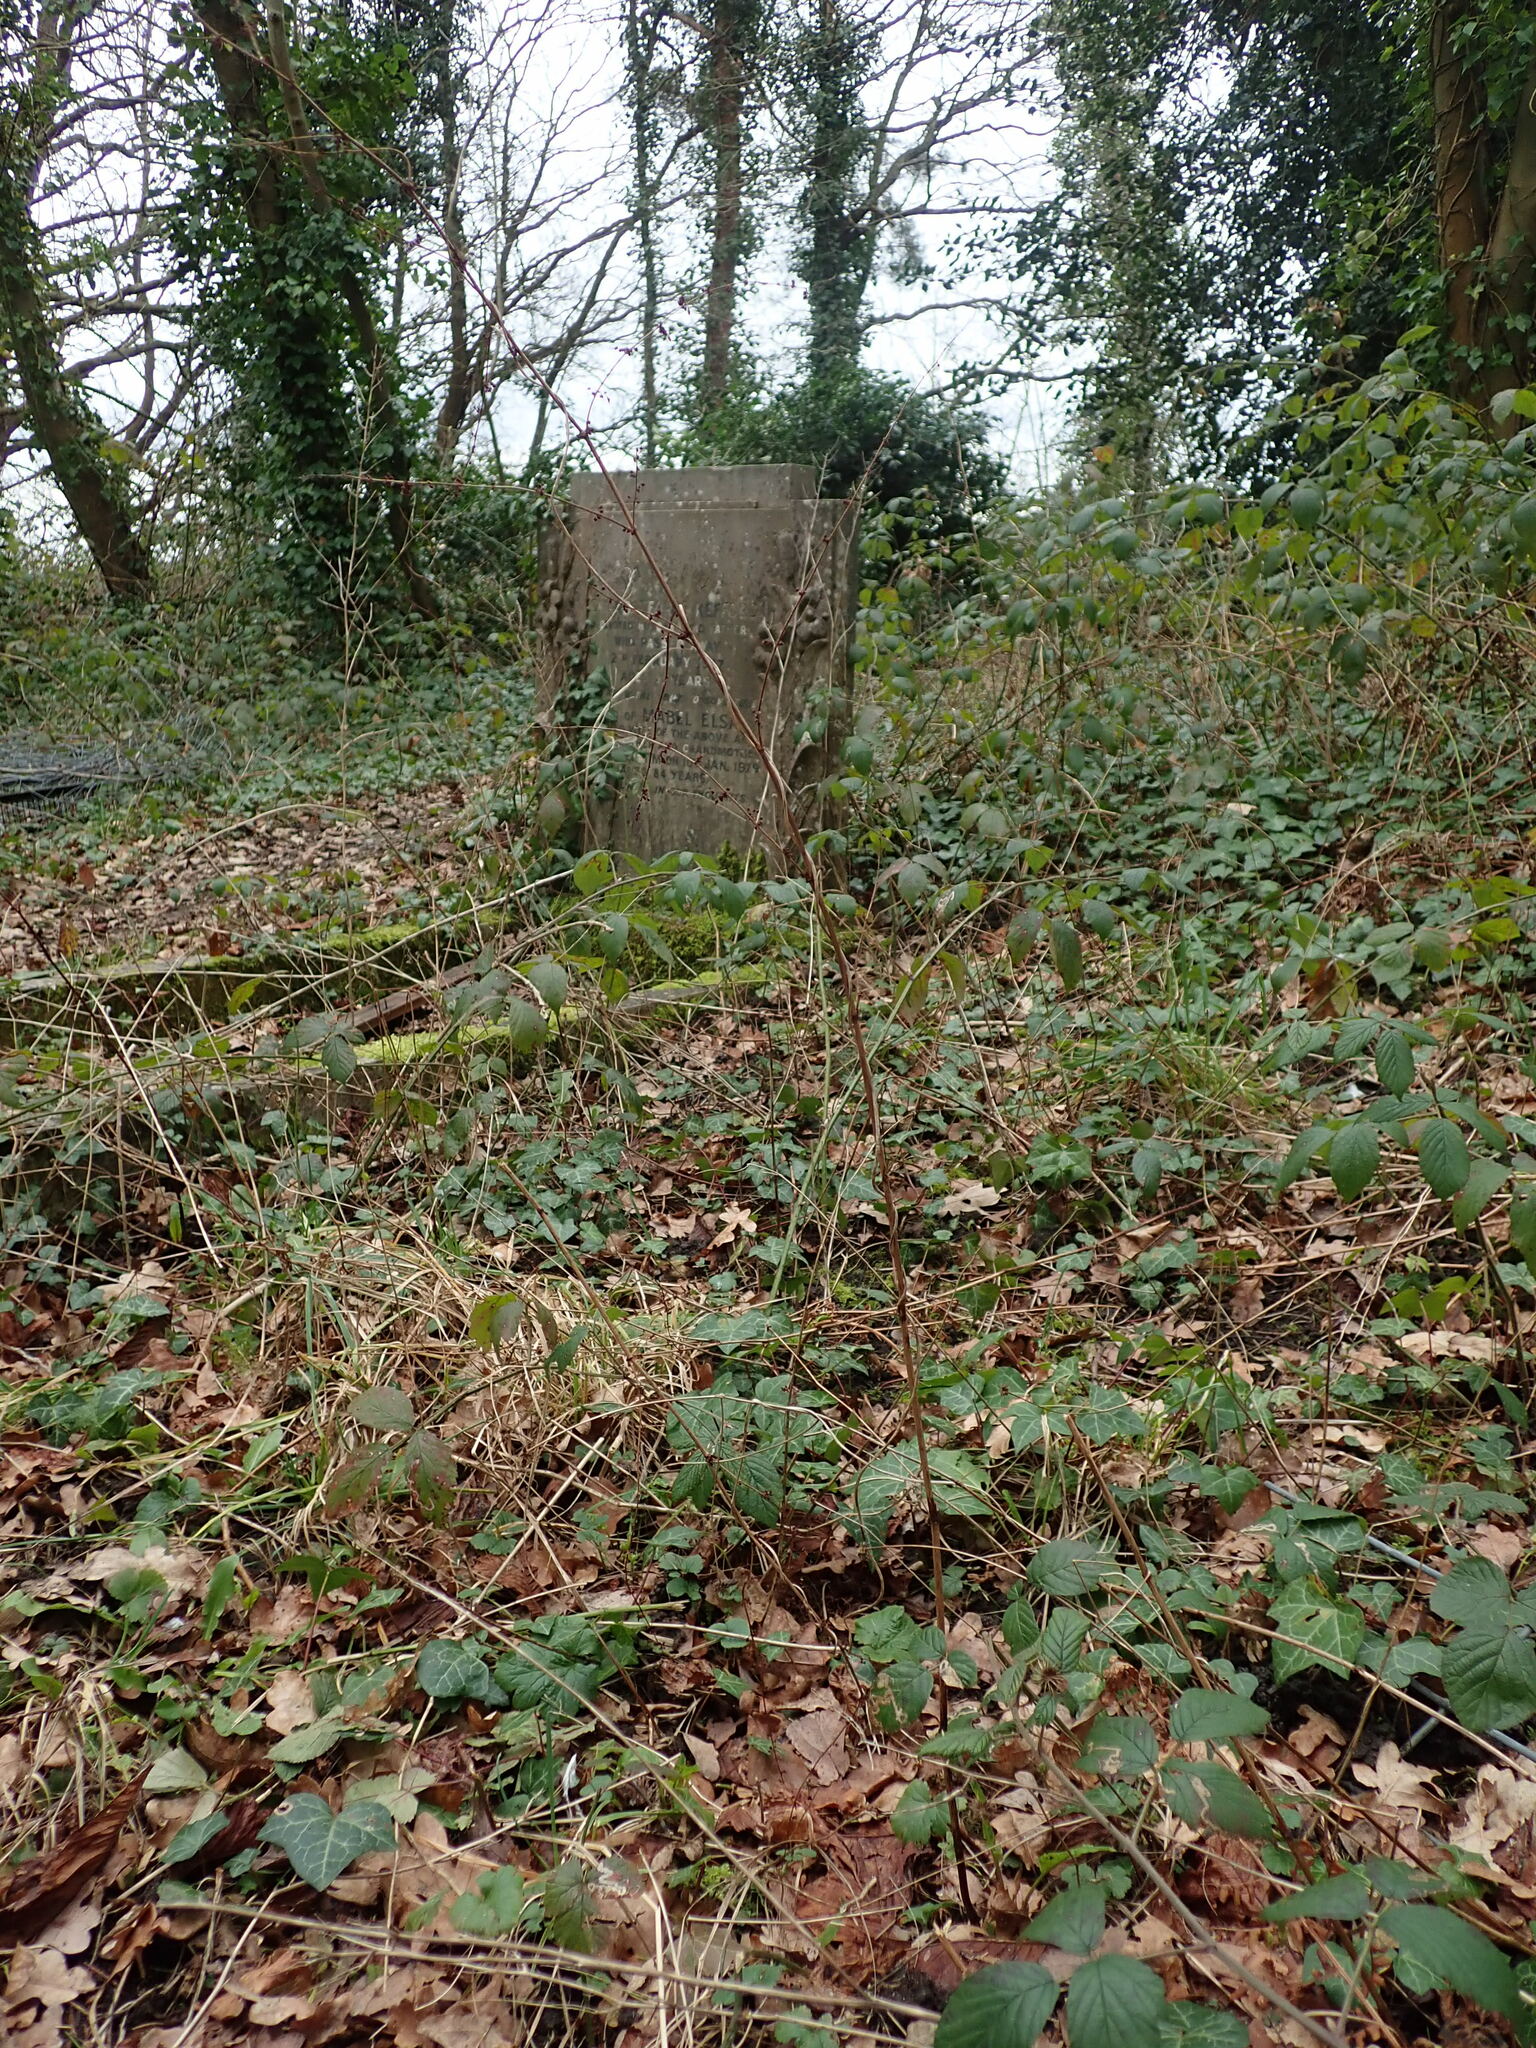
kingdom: Plantae
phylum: Tracheophyta
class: Magnoliopsida
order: Caryophyllales
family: Polygonaceae
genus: Rumex
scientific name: Rumex sanguineus
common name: Wood dock
